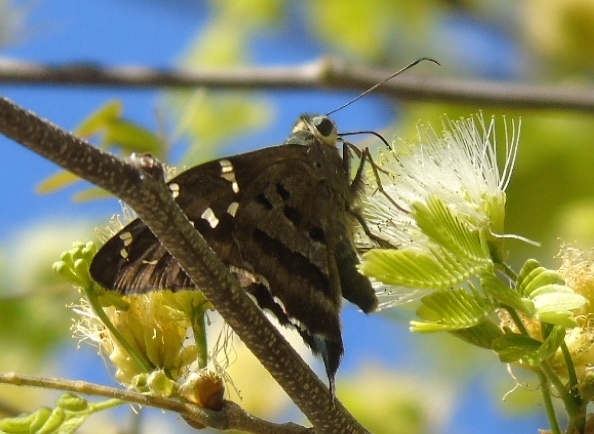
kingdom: Animalia
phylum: Arthropoda
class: Insecta
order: Lepidoptera
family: Hesperiidae
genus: Urbanus
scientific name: Urbanus esmeraldus
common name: Esmeralda longtail
